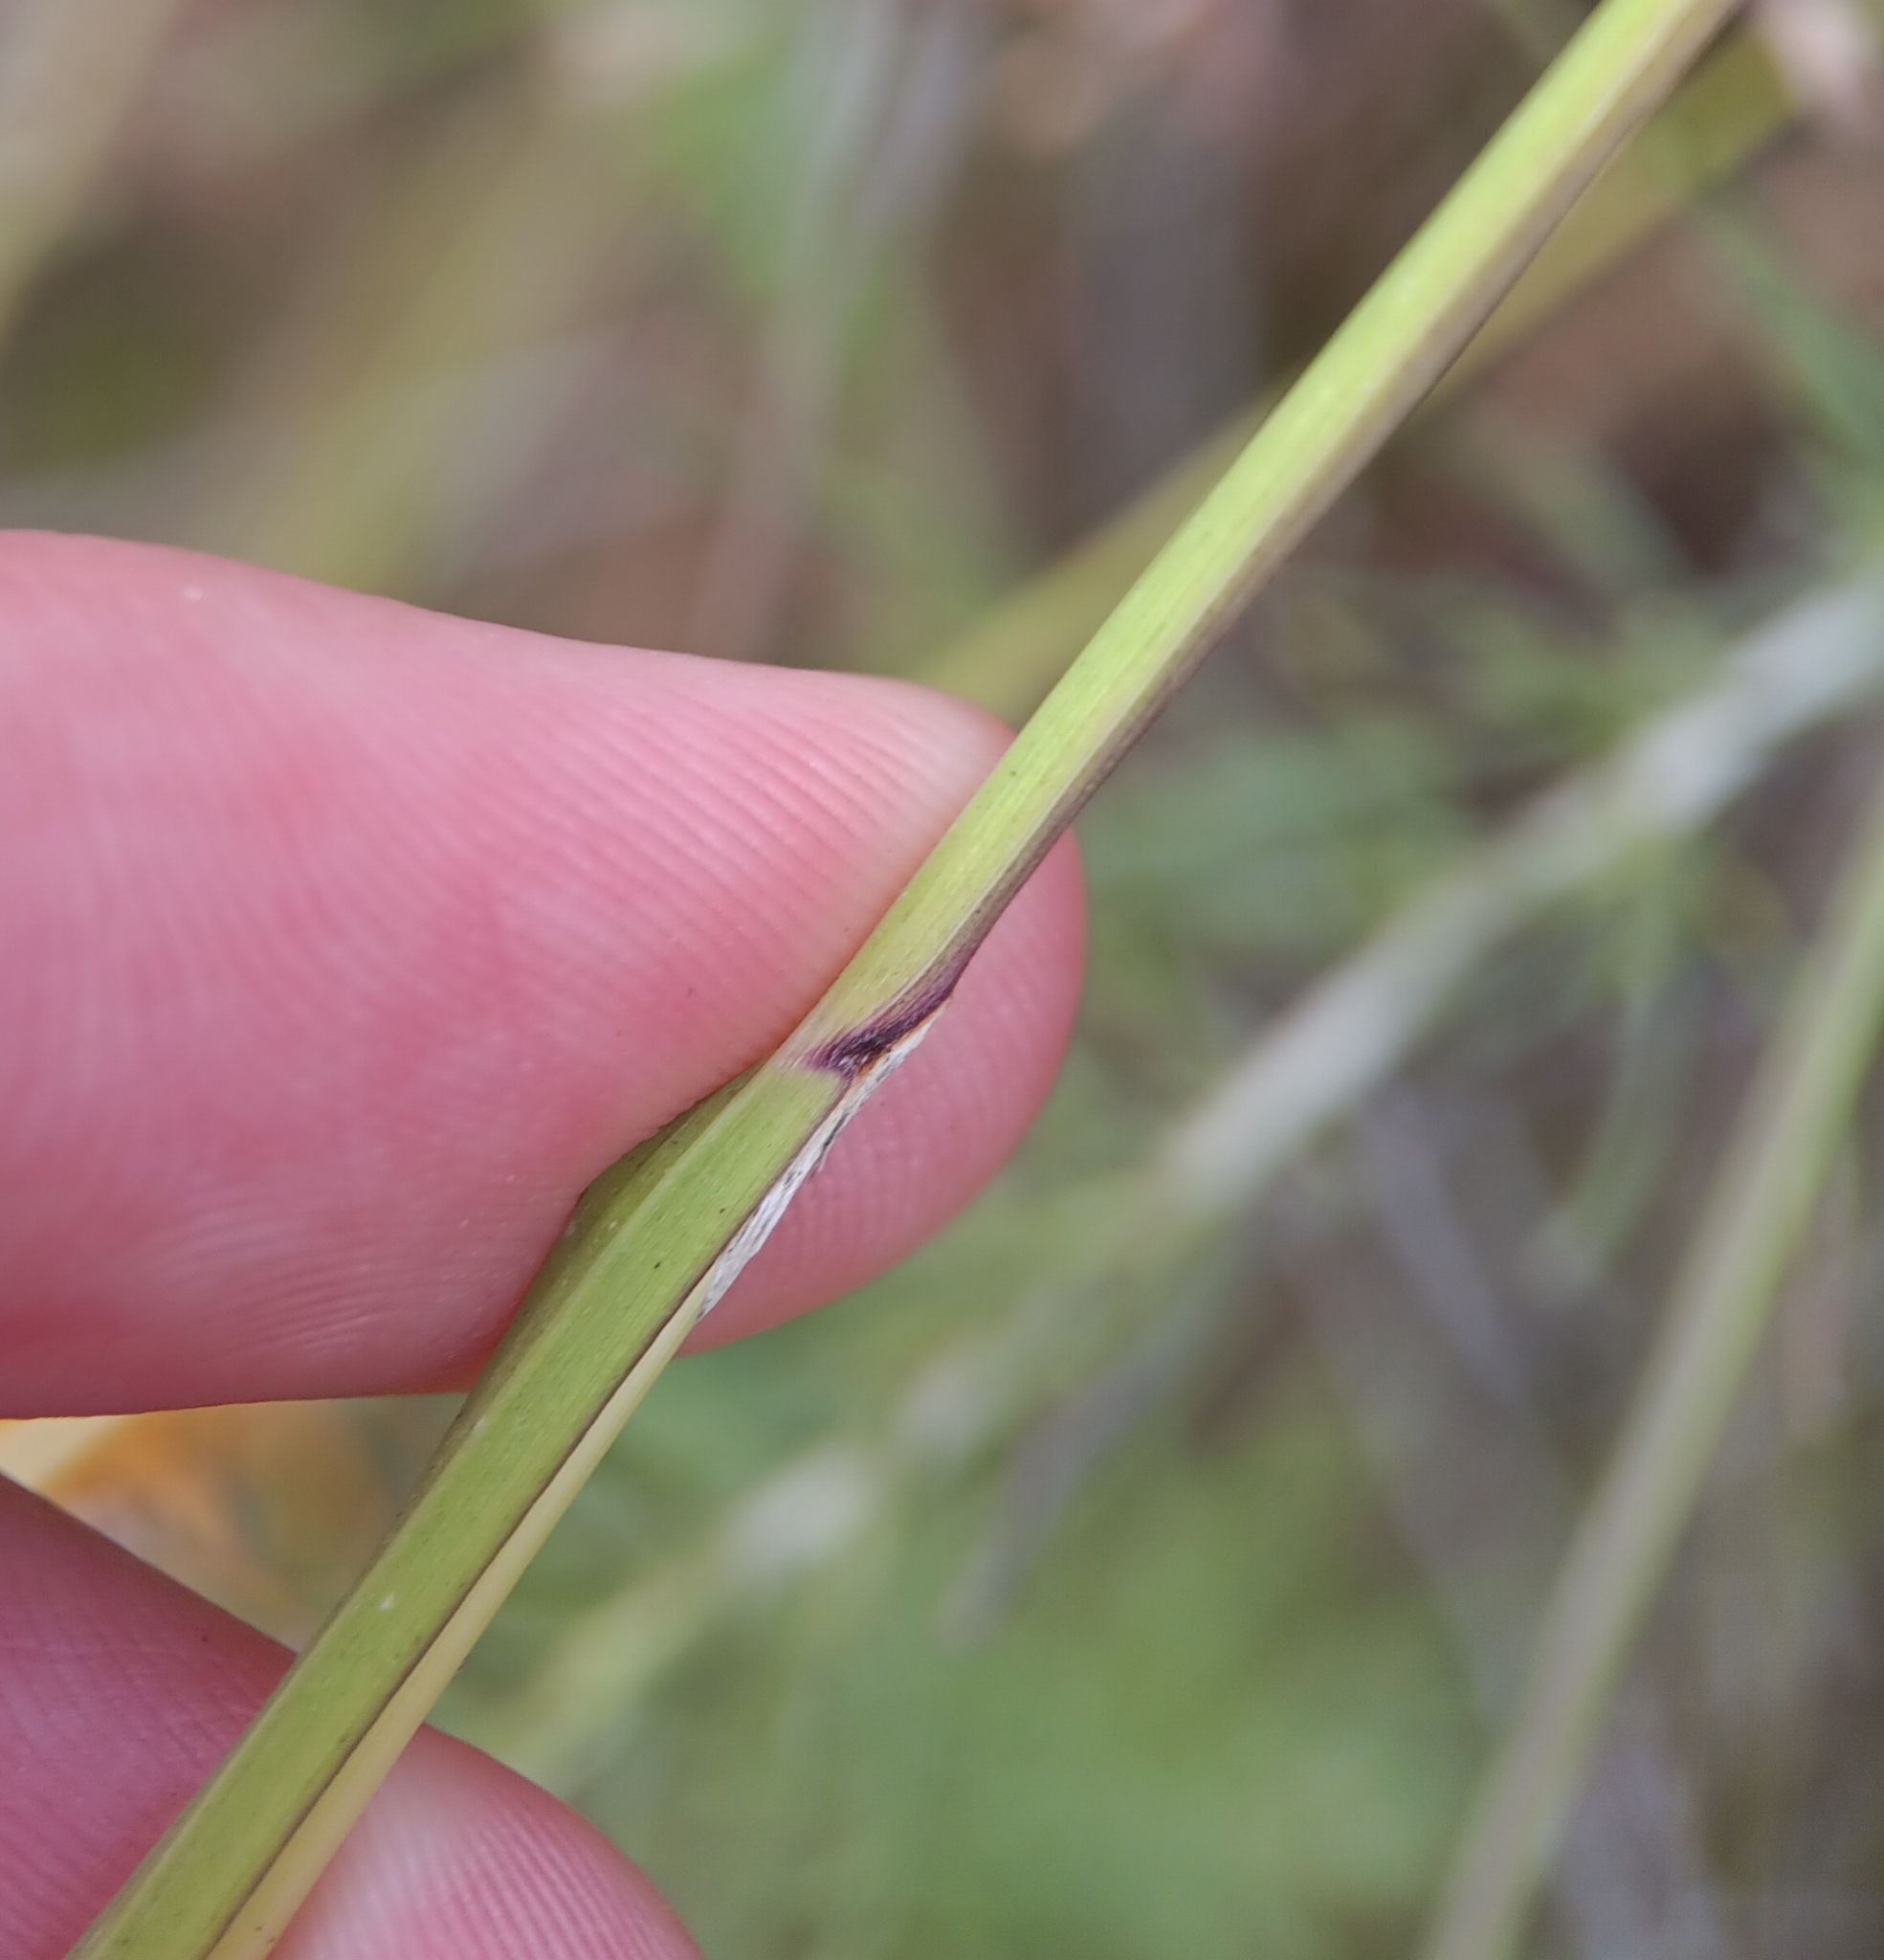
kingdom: Plantae
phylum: Tracheophyta
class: Liliopsida
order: Poales
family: Poaceae
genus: Melica
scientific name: Melica imperfecta
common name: California melic
